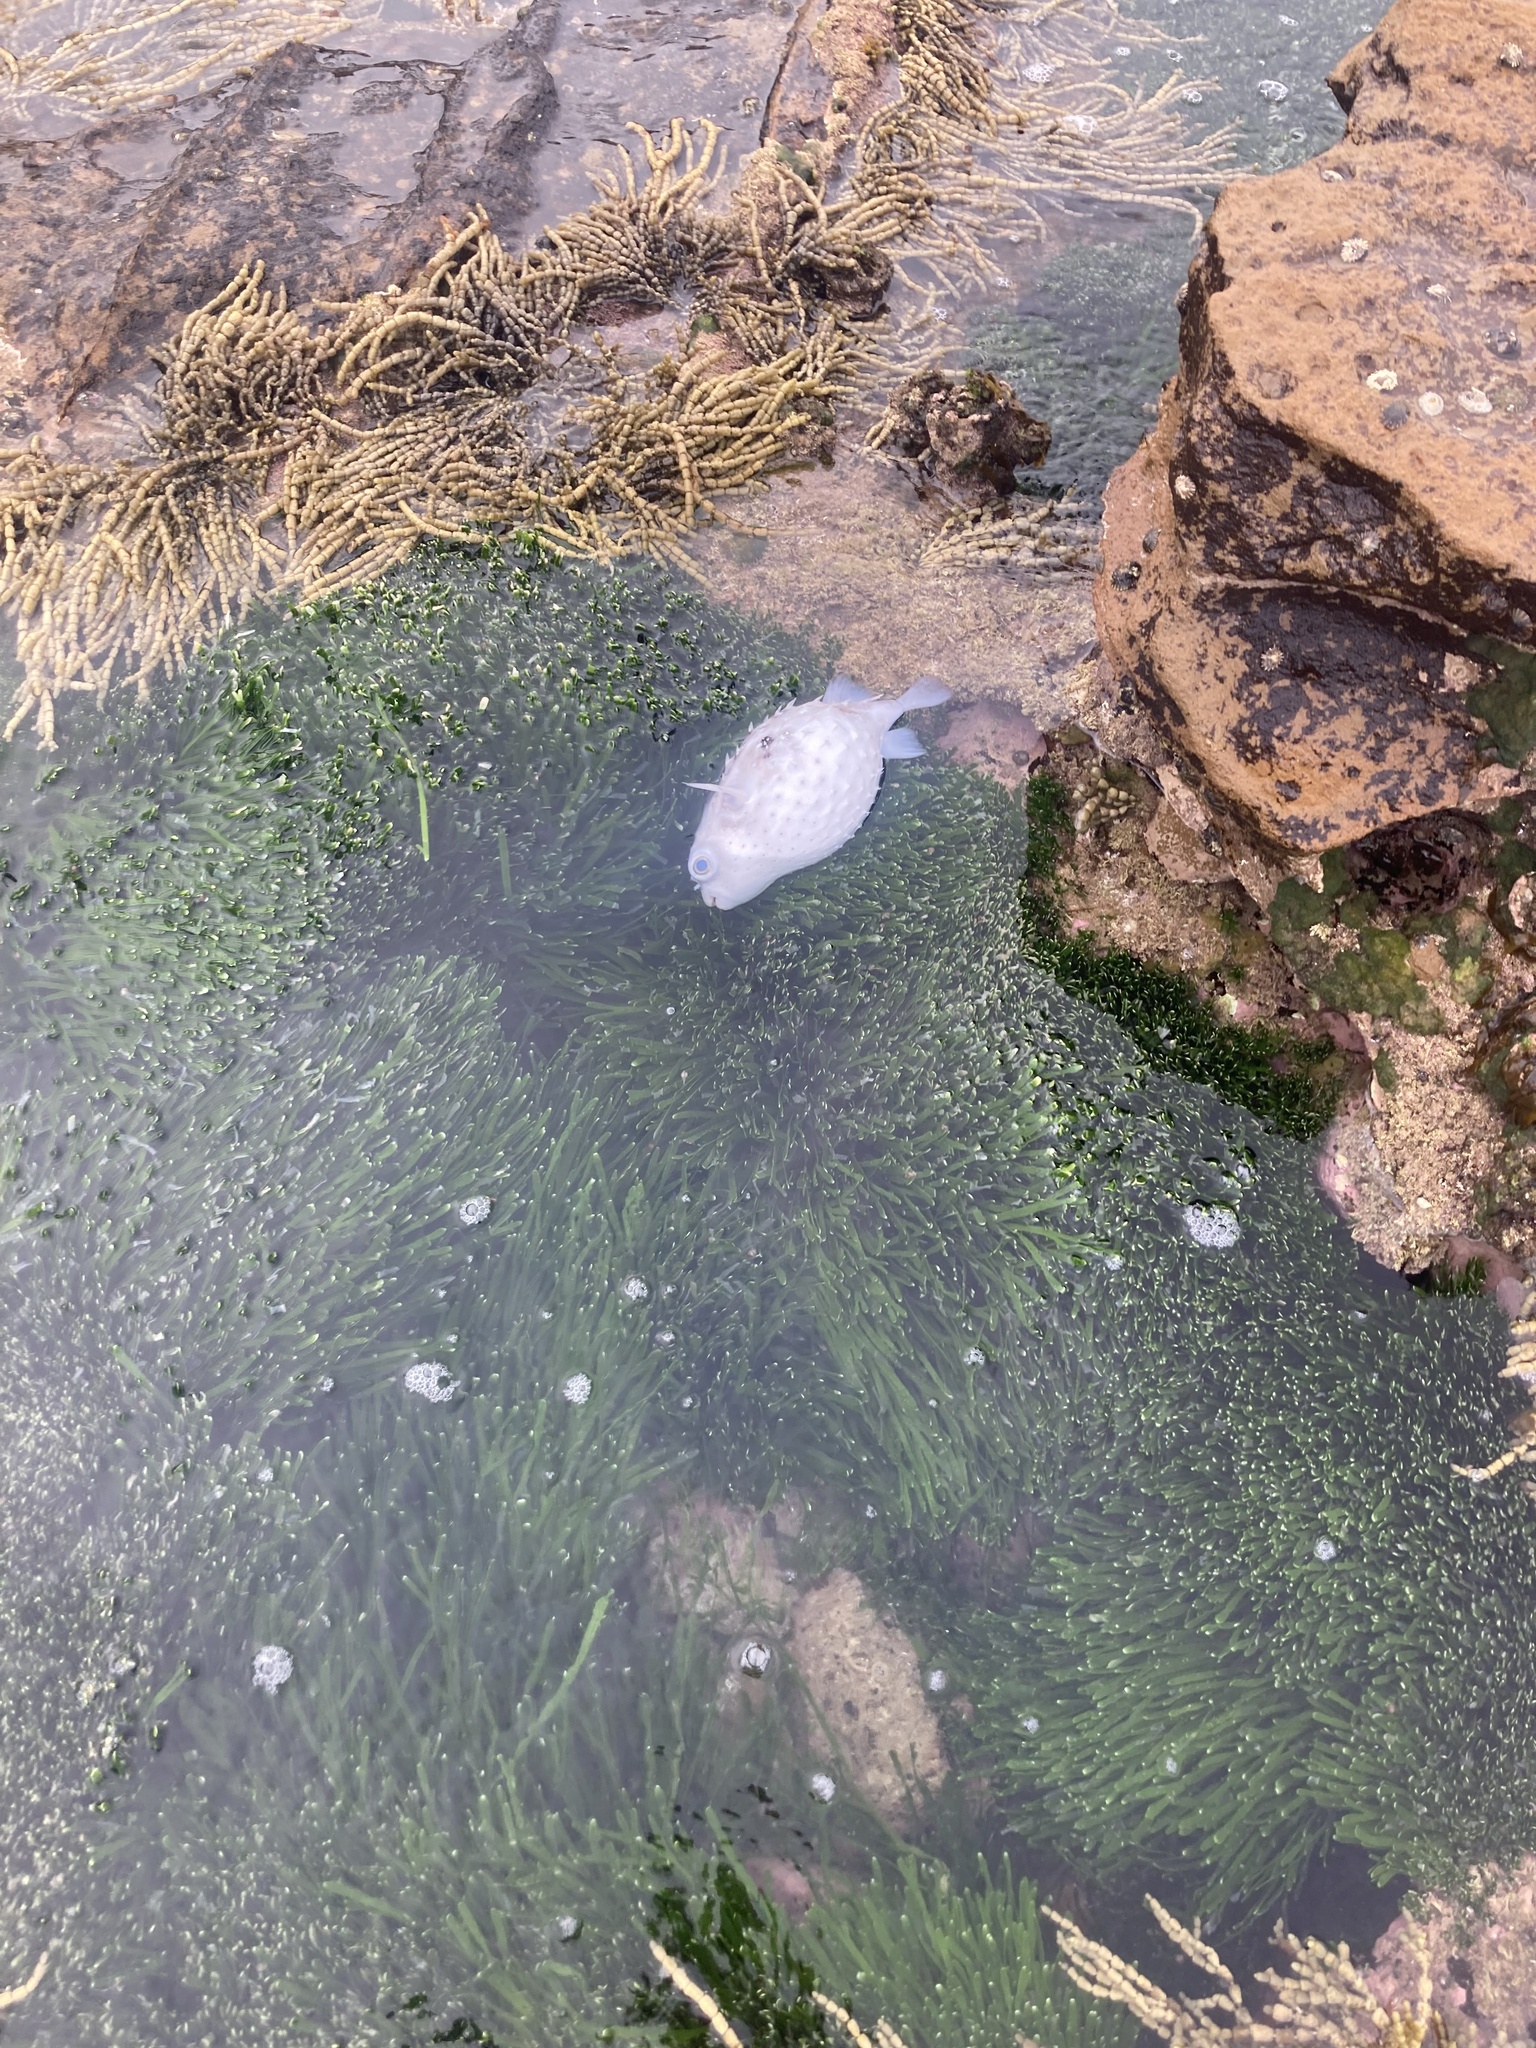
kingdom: Animalia
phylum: Chordata
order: Tetraodontiformes
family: Diodontidae
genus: Allomycterus
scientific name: Allomycterus pilatus
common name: No common name
